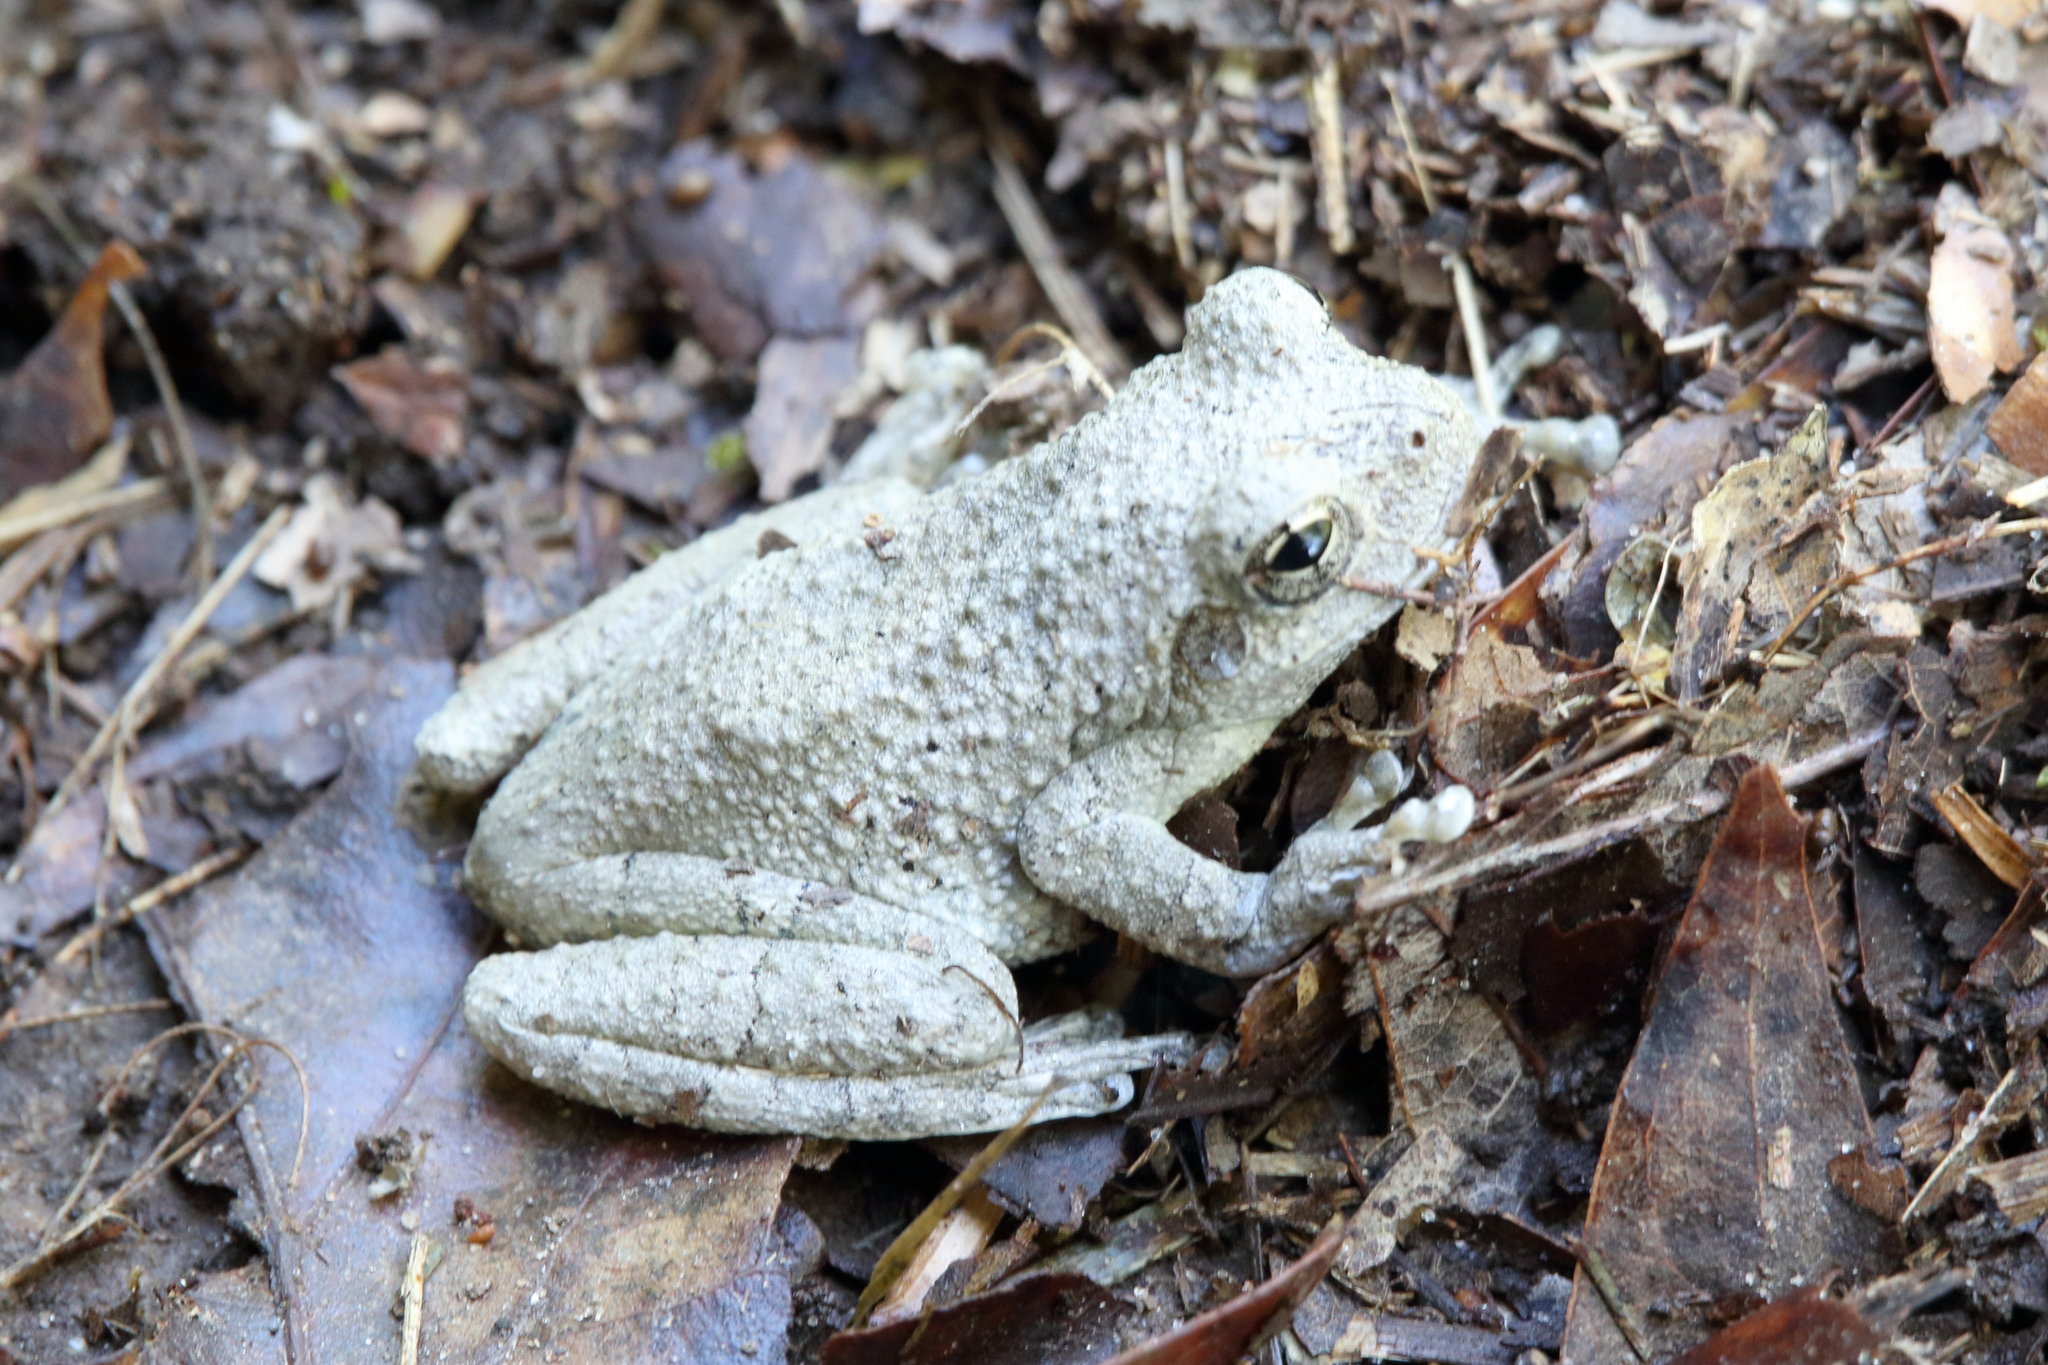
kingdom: Animalia
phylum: Chordata
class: Amphibia
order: Anura
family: Hylidae
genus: Dryophytes
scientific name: Dryophytes chrysoscelis
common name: Cope's gray treefrog
